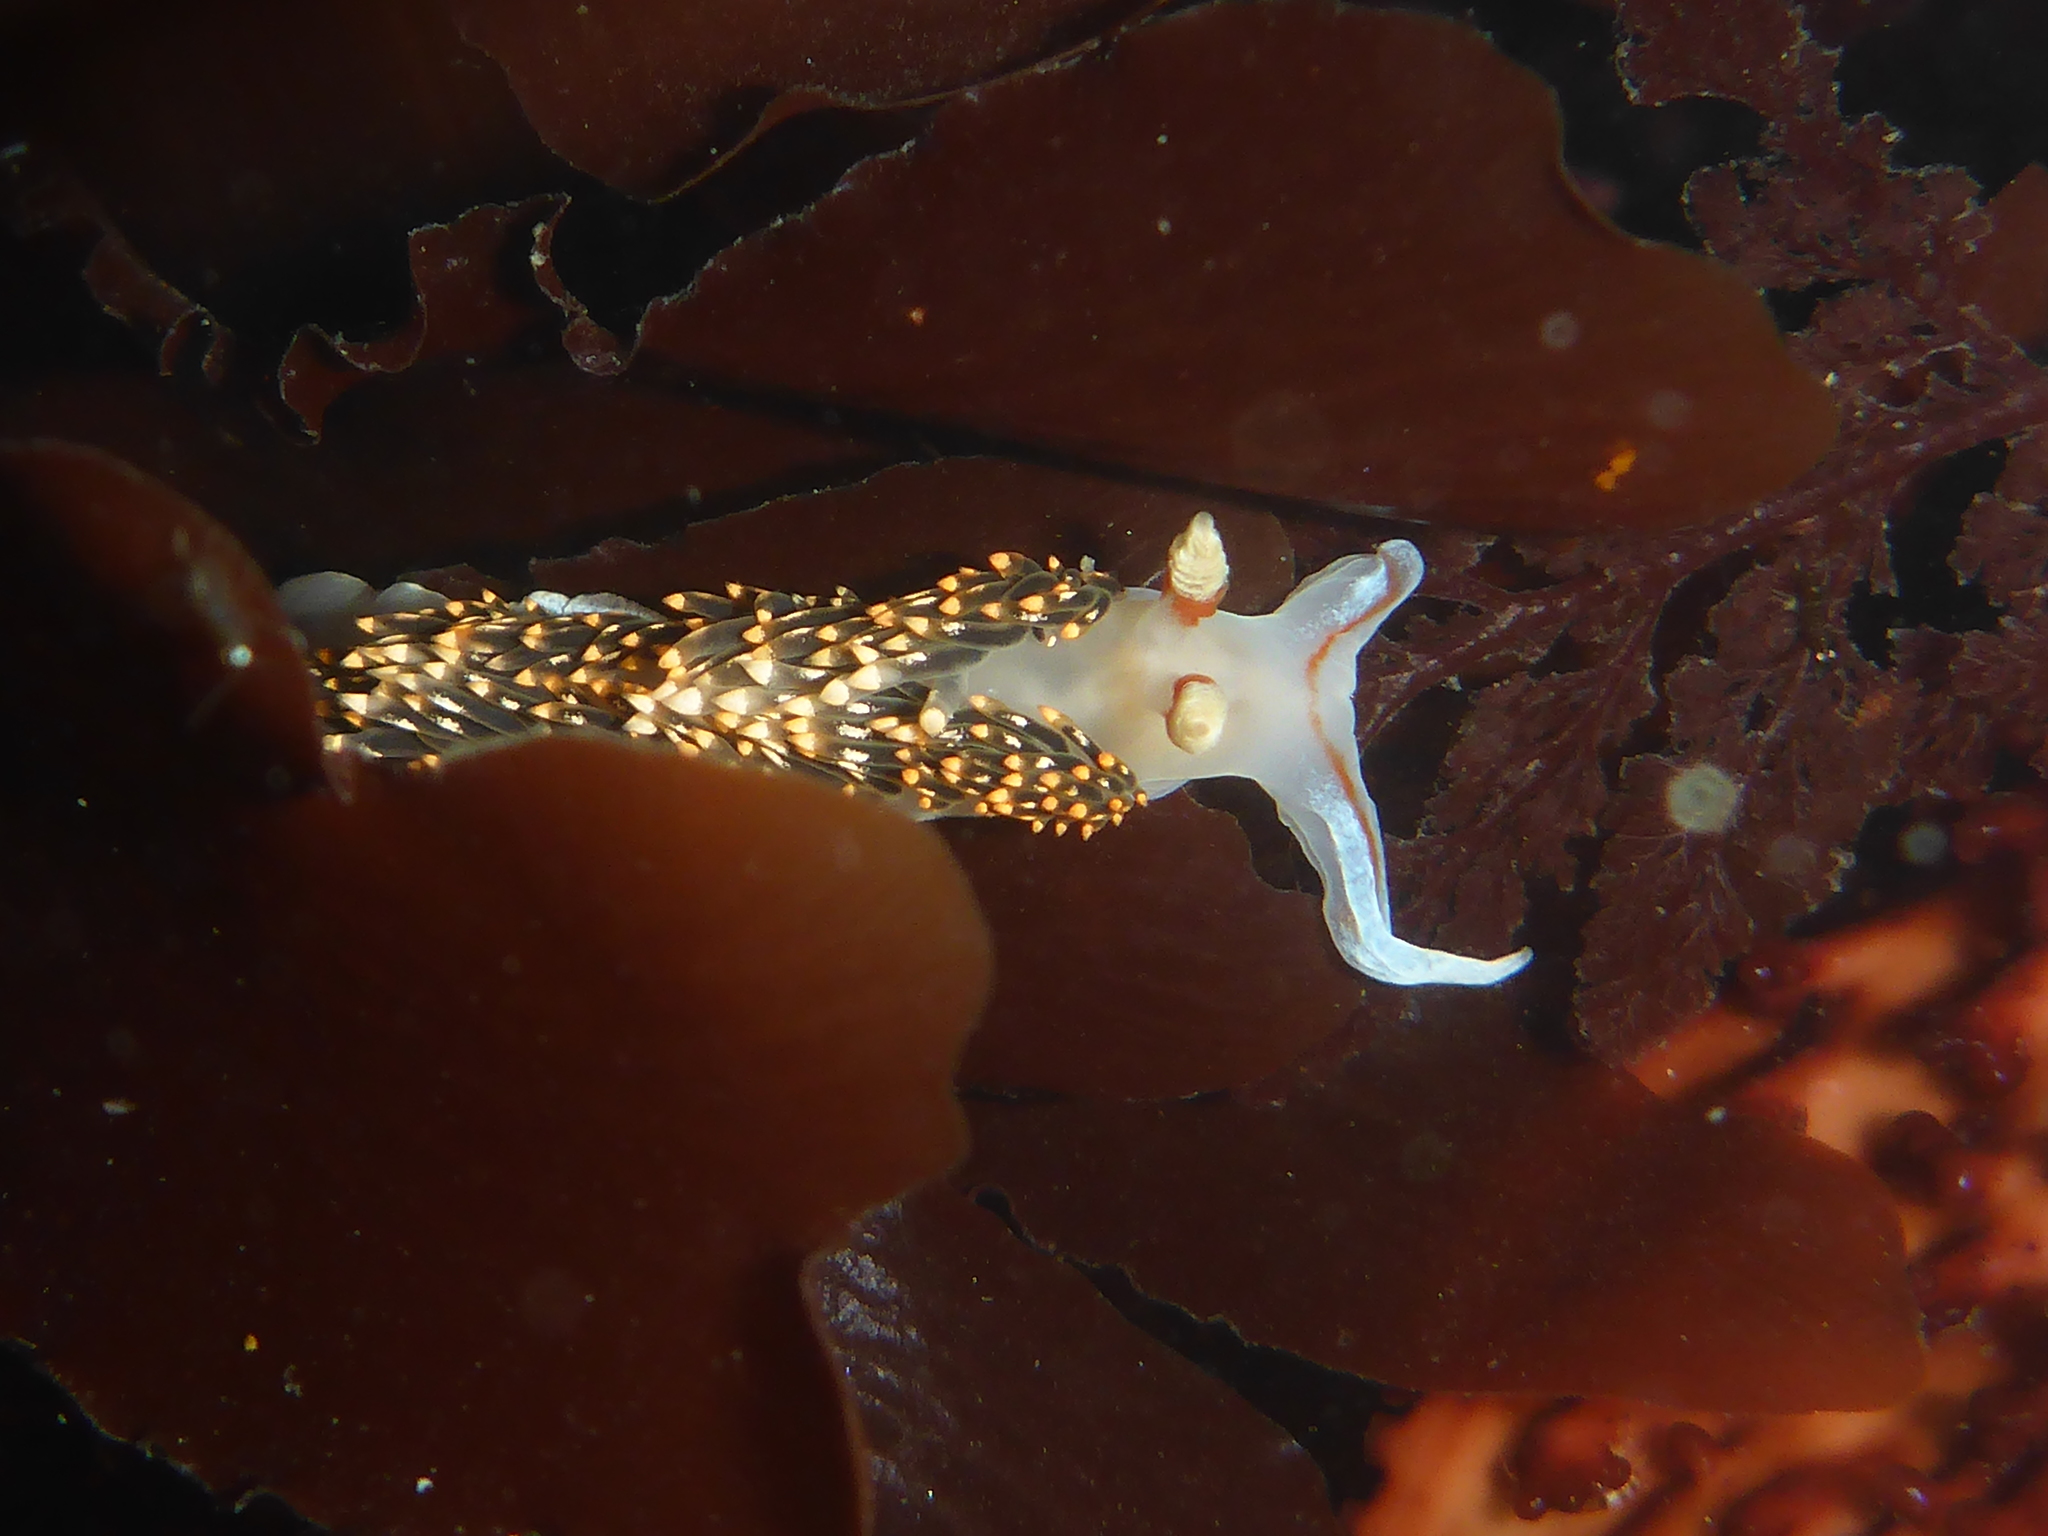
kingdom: Animalia
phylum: Mollusca
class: Gastropoda
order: Nudibranchia
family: Facelinidae
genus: Phidiana
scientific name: Phidiana hiltoni
